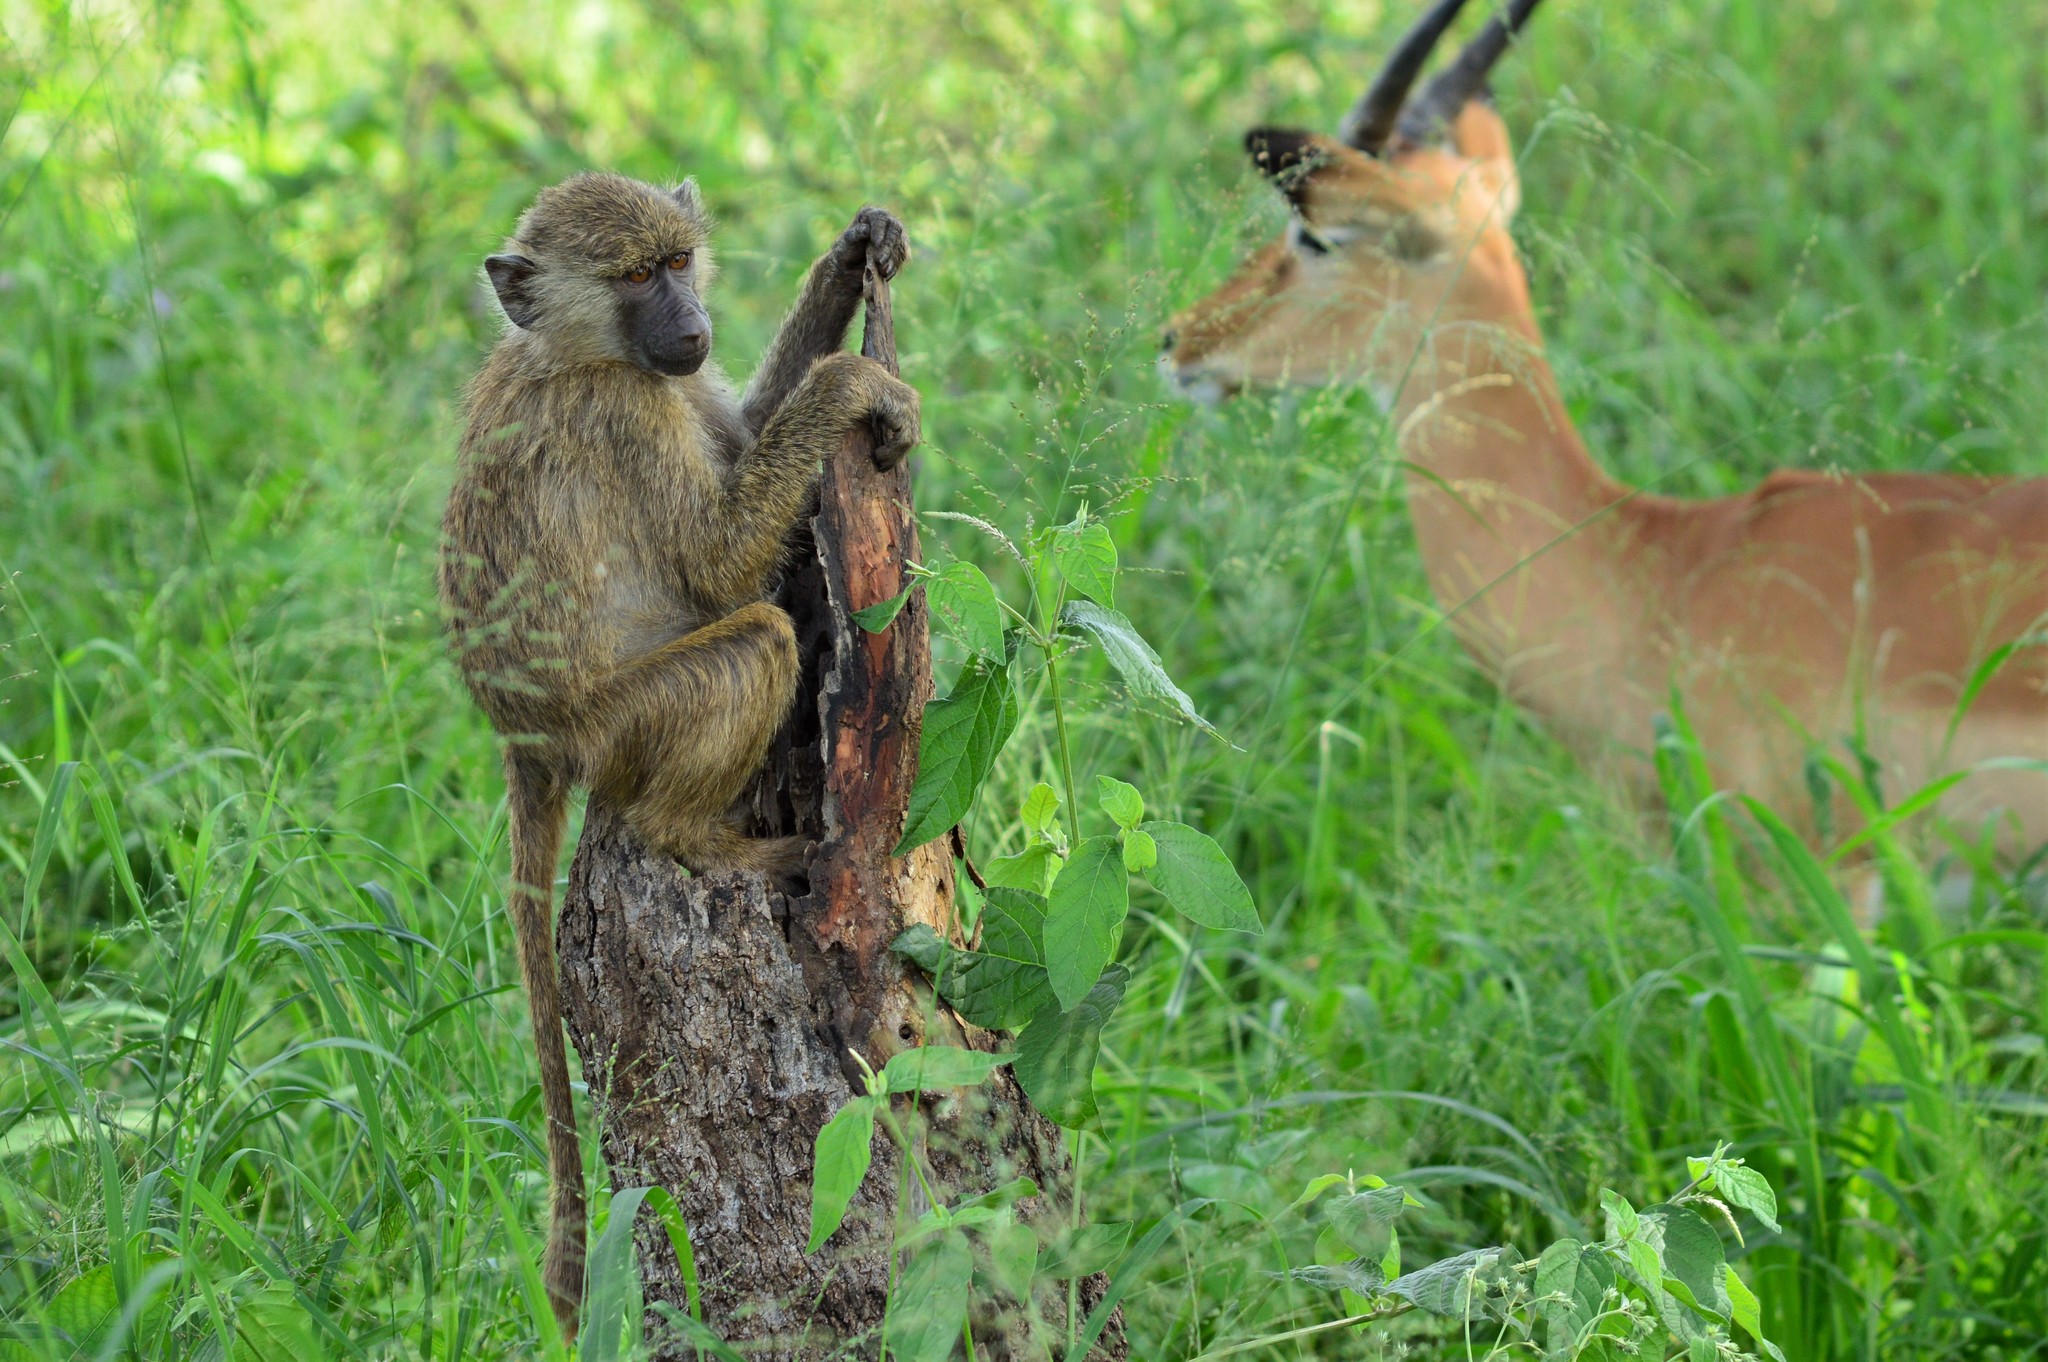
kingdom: Animalia
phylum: Chordata
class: Mammalia
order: Primates
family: Cercopithecidae
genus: Papio
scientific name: Papio anubis
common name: Olive baboon
